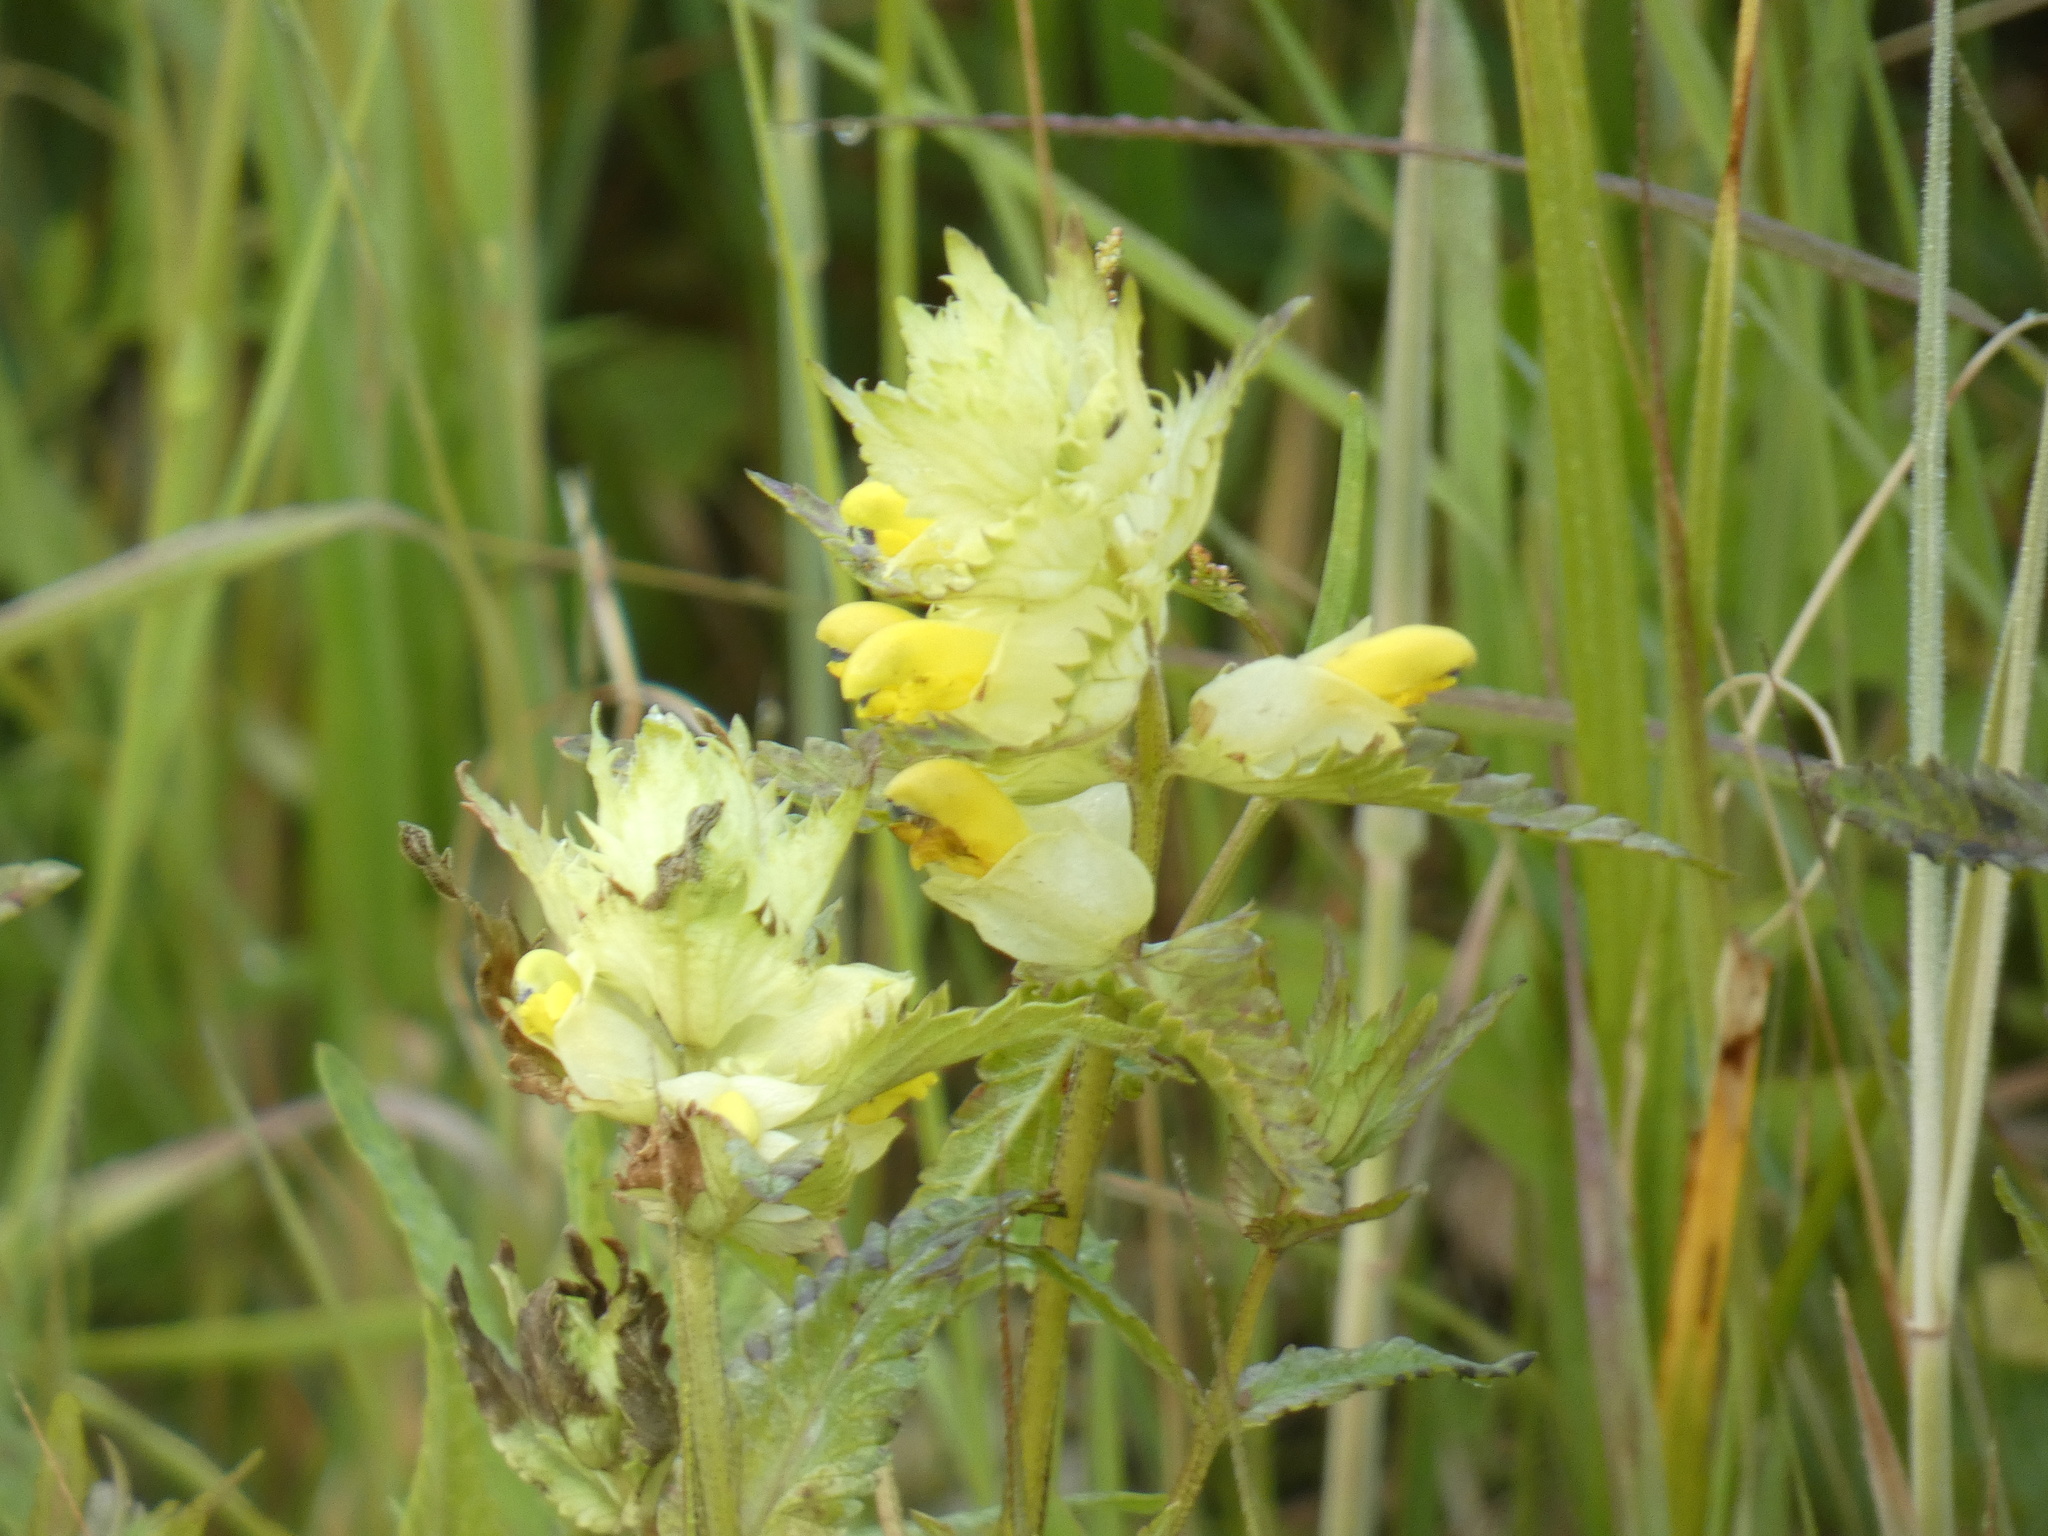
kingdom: Plantae
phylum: Tracheophyta
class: Magnoliopsida
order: Lamiales
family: Orobanchaceae
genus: Rhinanthus
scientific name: Rhinanthus serotinus
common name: Late-flowering yellow rattle
